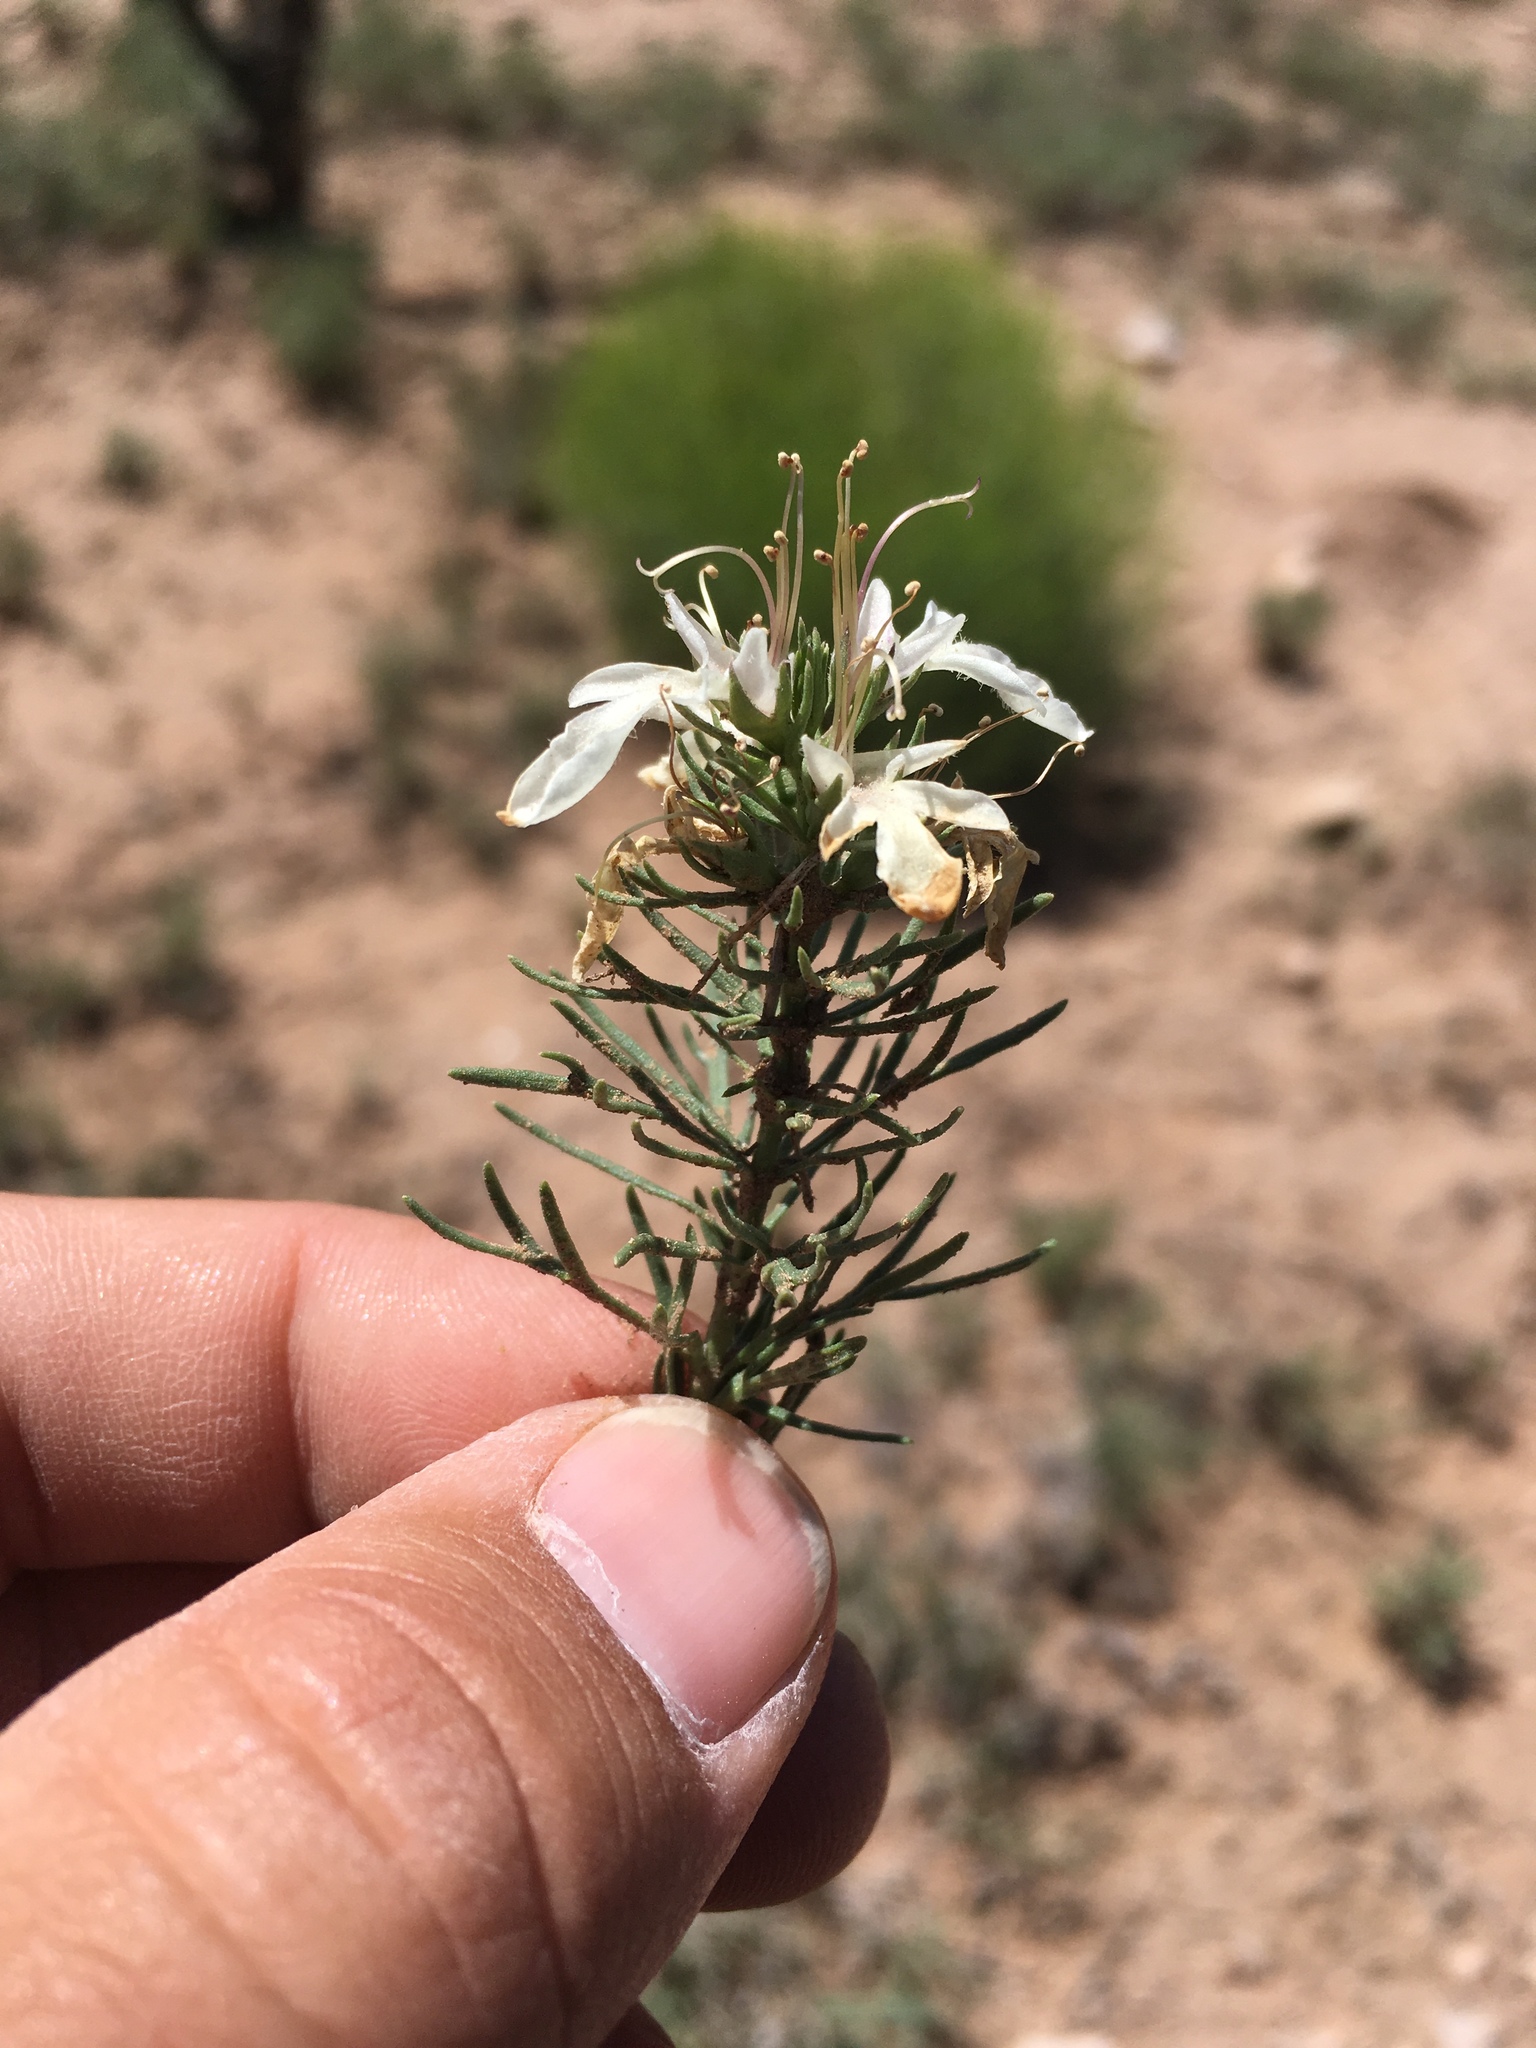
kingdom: Plantae
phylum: Tracheophyta
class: Magnoliopsida
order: Lamiales
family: Lamiaceae
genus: Teucrium
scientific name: Teucrium laciniatum
